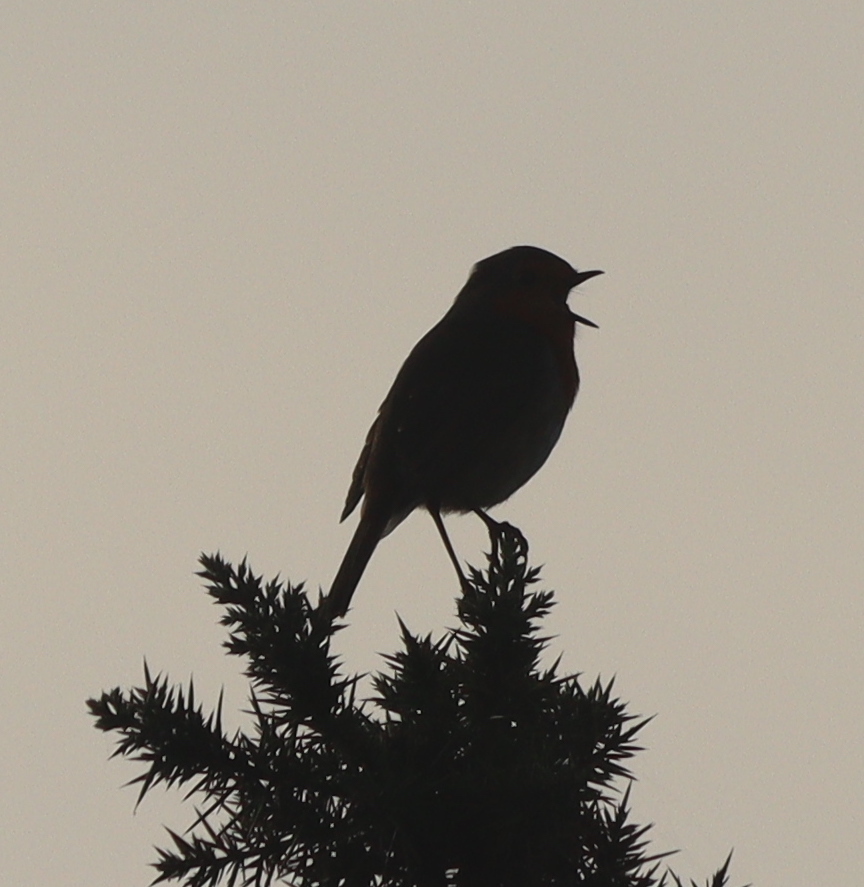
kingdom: Animalia
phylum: Chordata
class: Aves
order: Passeriformes
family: Muscicapidae
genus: Erithacus
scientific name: Erithacus rubecula
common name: European robin
